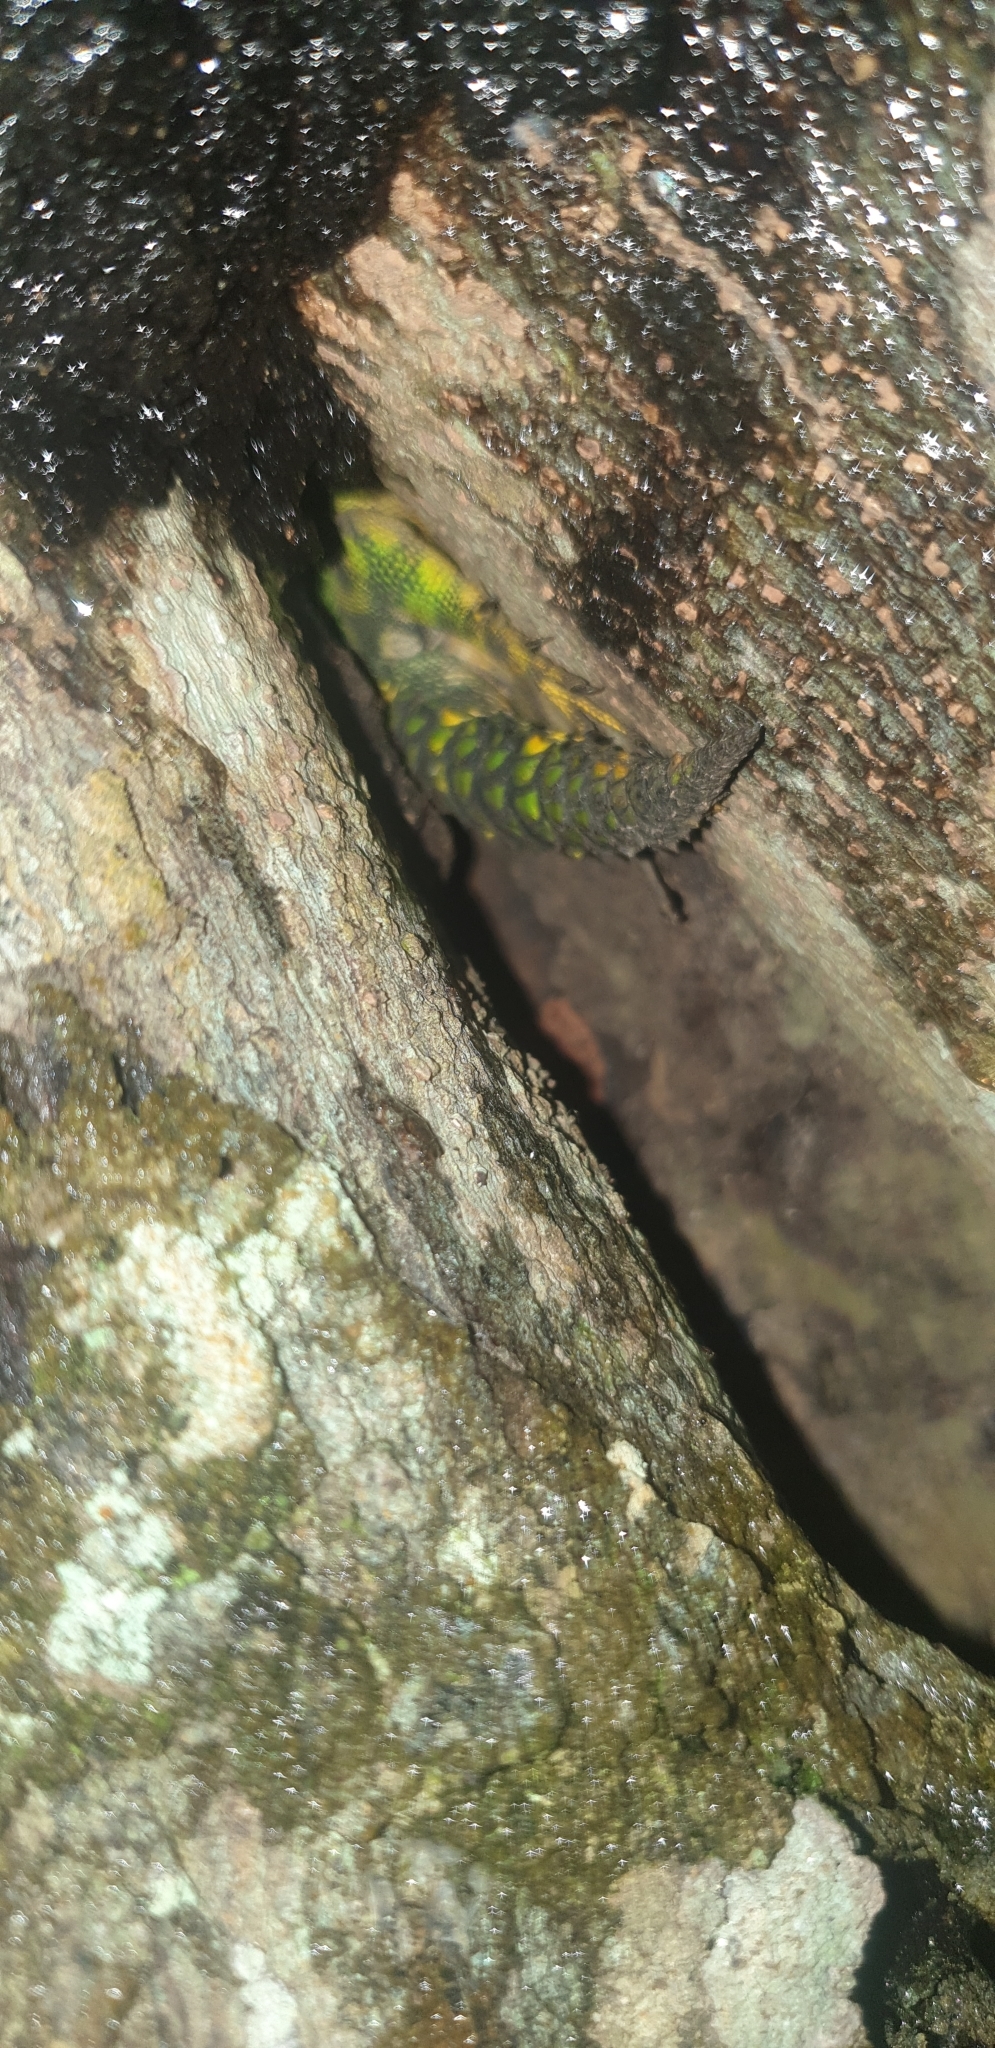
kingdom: Animalia
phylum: Chordata
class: Squamata
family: Tropiduridae
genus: Uracentron
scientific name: Uracentron azureum
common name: Green thornytail iguana
